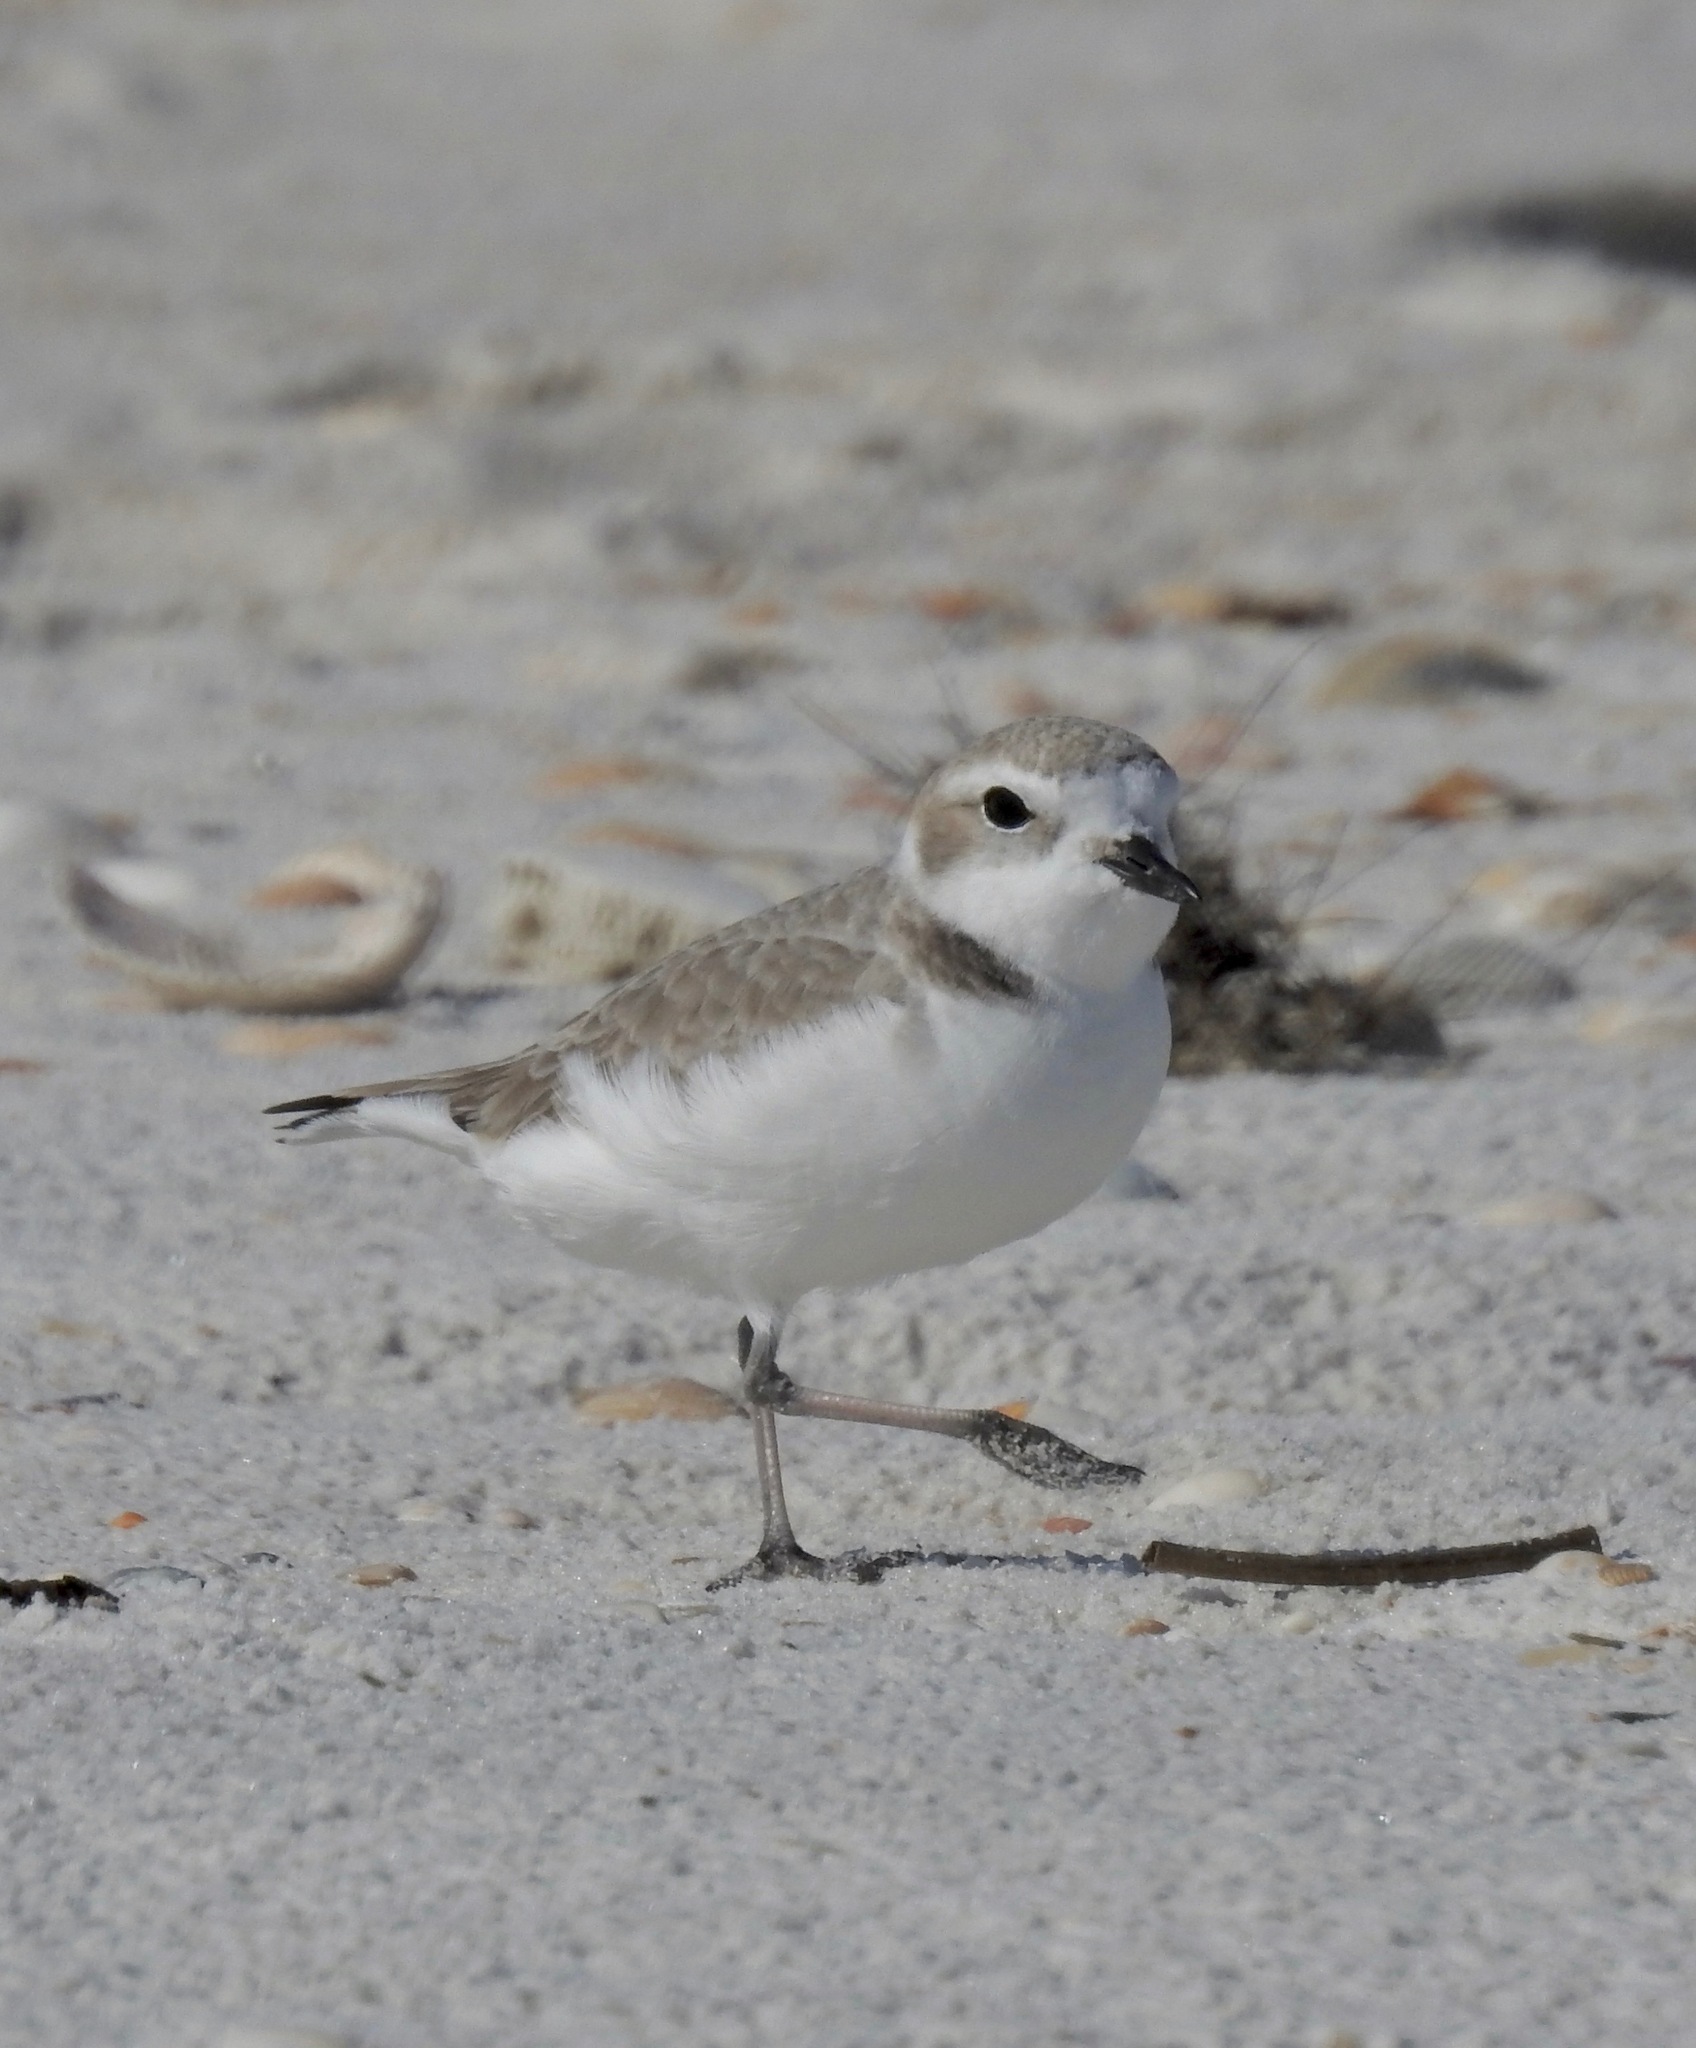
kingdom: Animalia
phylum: Chordata
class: Aves
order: Charadriiformes
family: Charadriidae
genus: Anarhynchus
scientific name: Anarhynchus
